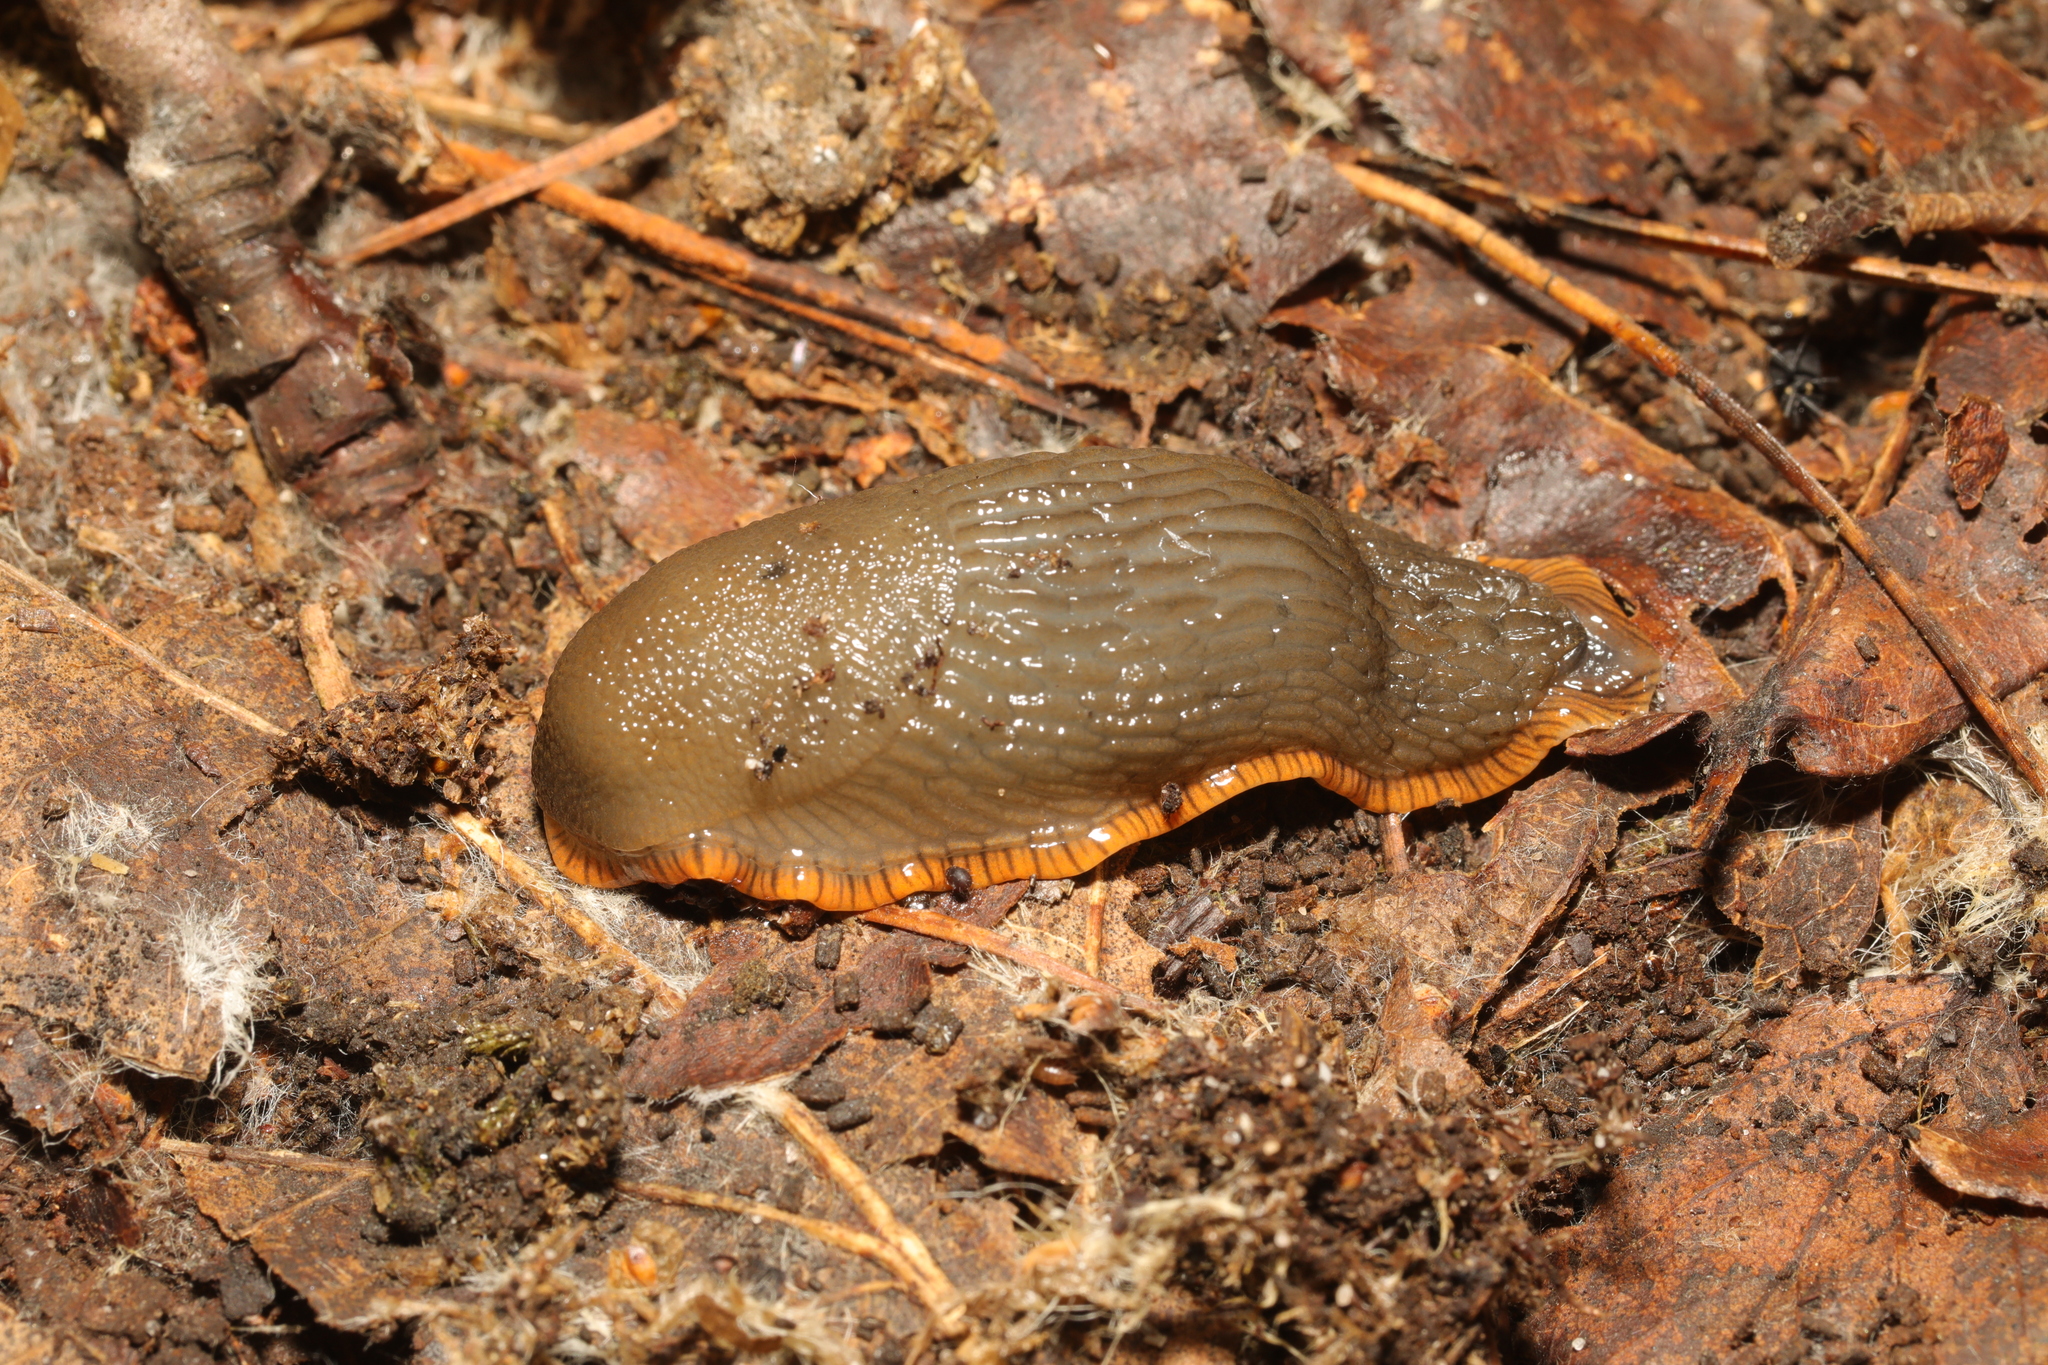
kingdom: Animalia
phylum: Mollusca
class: Gastropoda
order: Stylommatophora
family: Arionidae
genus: Arion
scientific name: Arion rufus
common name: Chocolate arion
